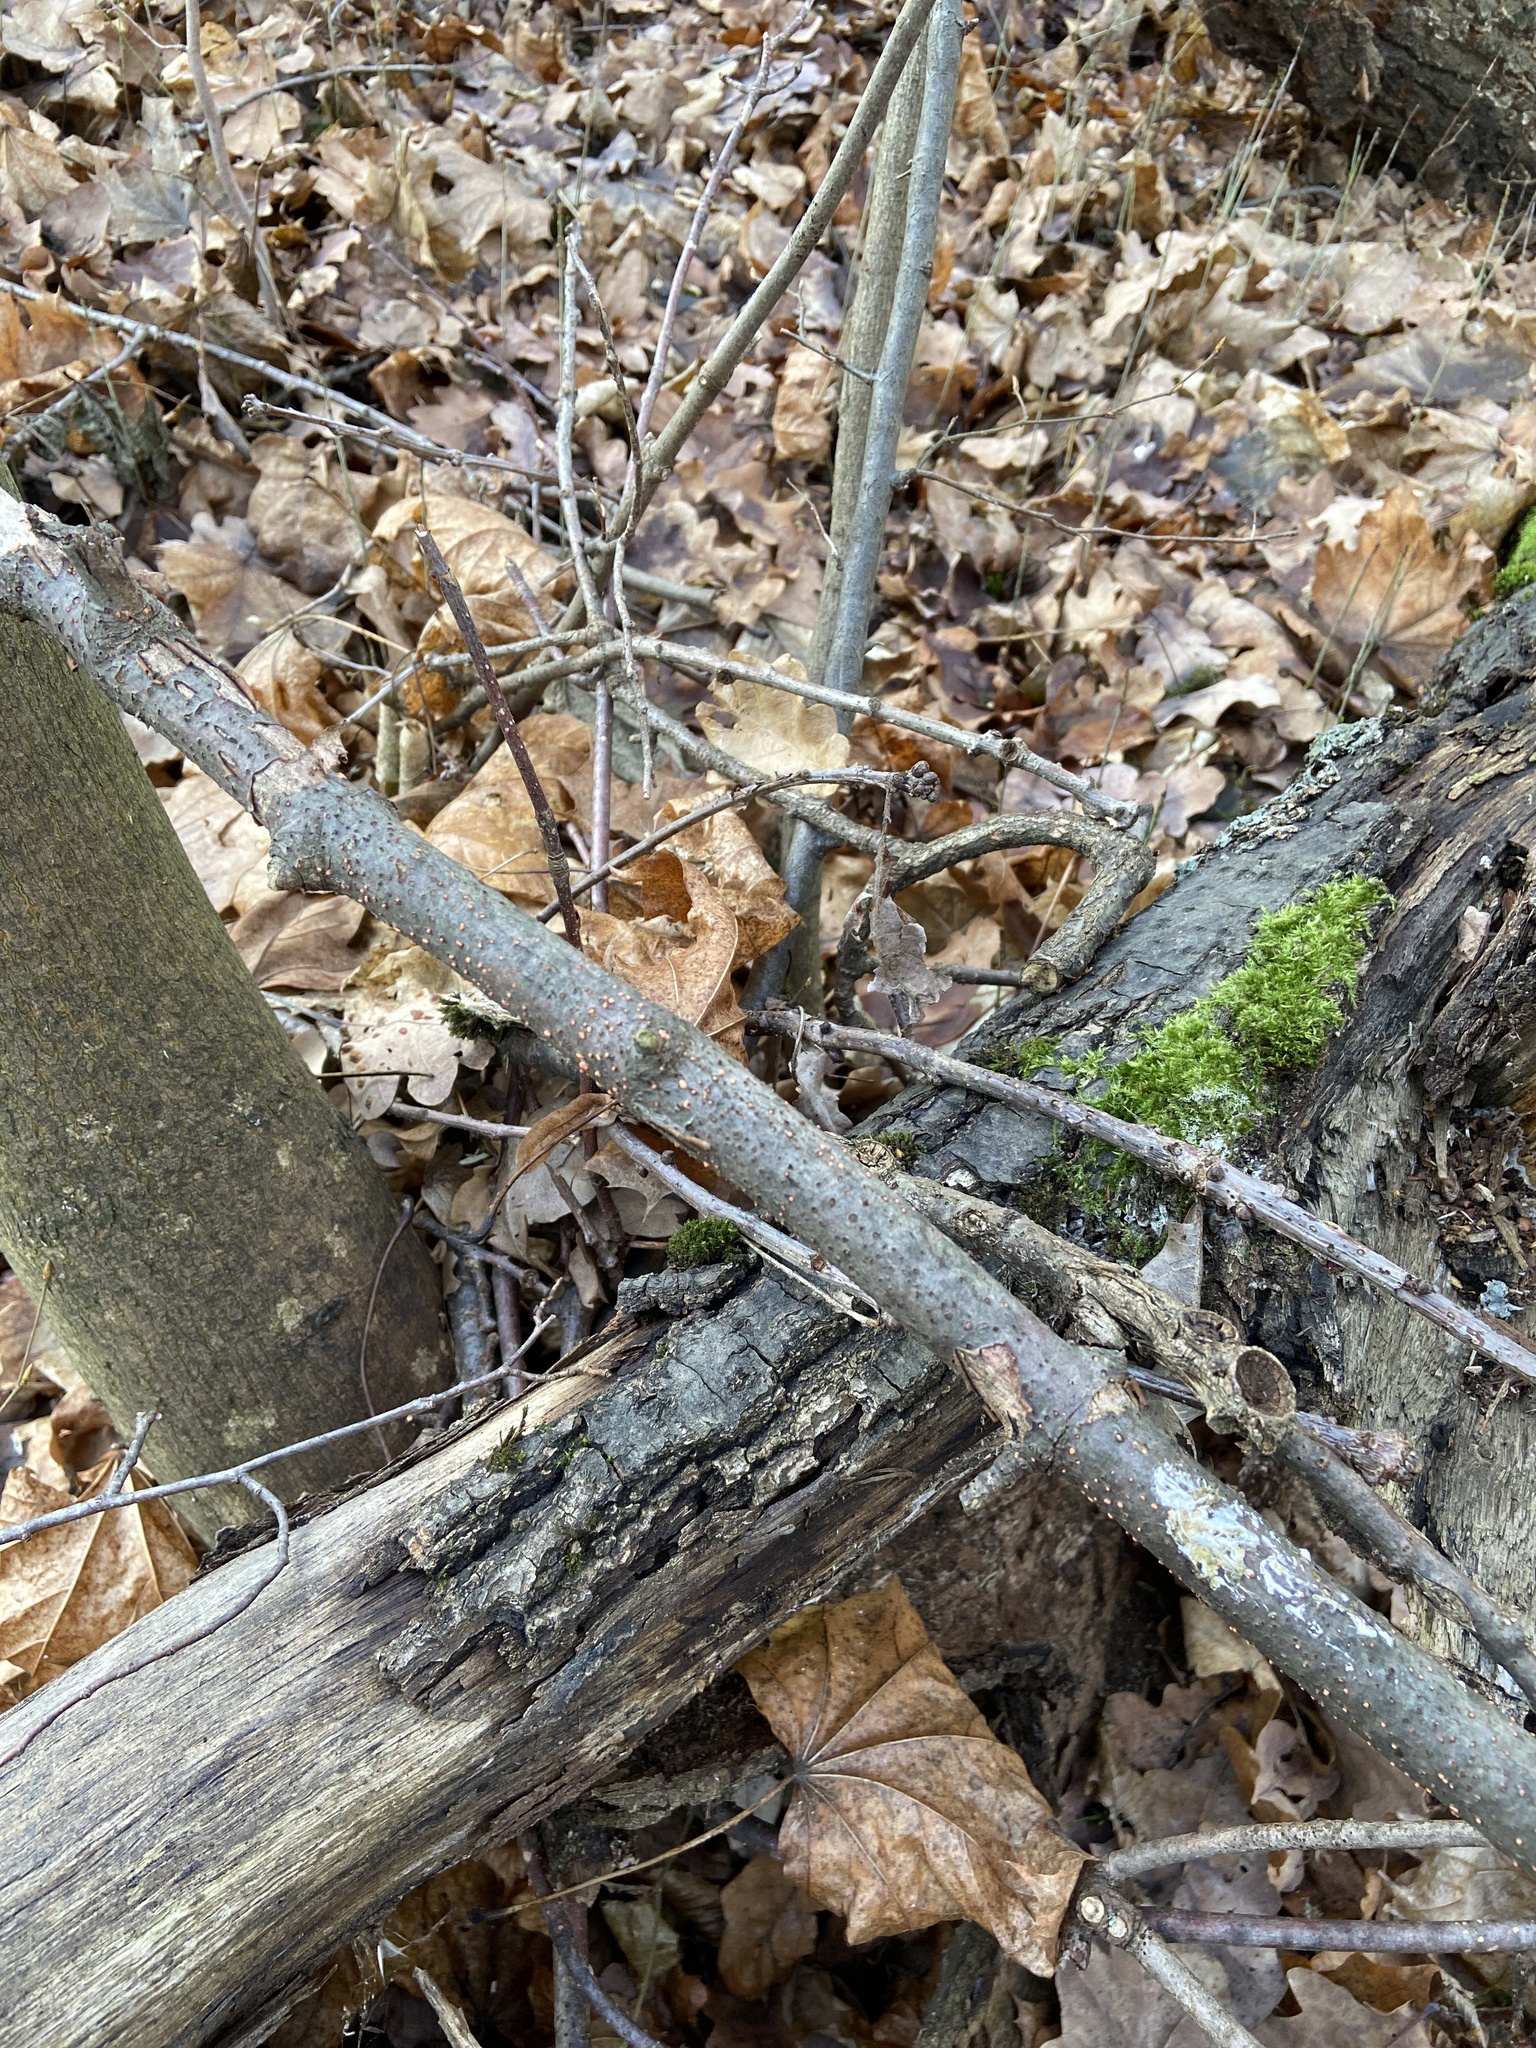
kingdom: Fungi
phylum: Ascomycota
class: Sordariomycetes
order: Hypocreales
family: Nectriaceae
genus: Nectria
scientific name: Nectria cinnabarina
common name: Coral spot
